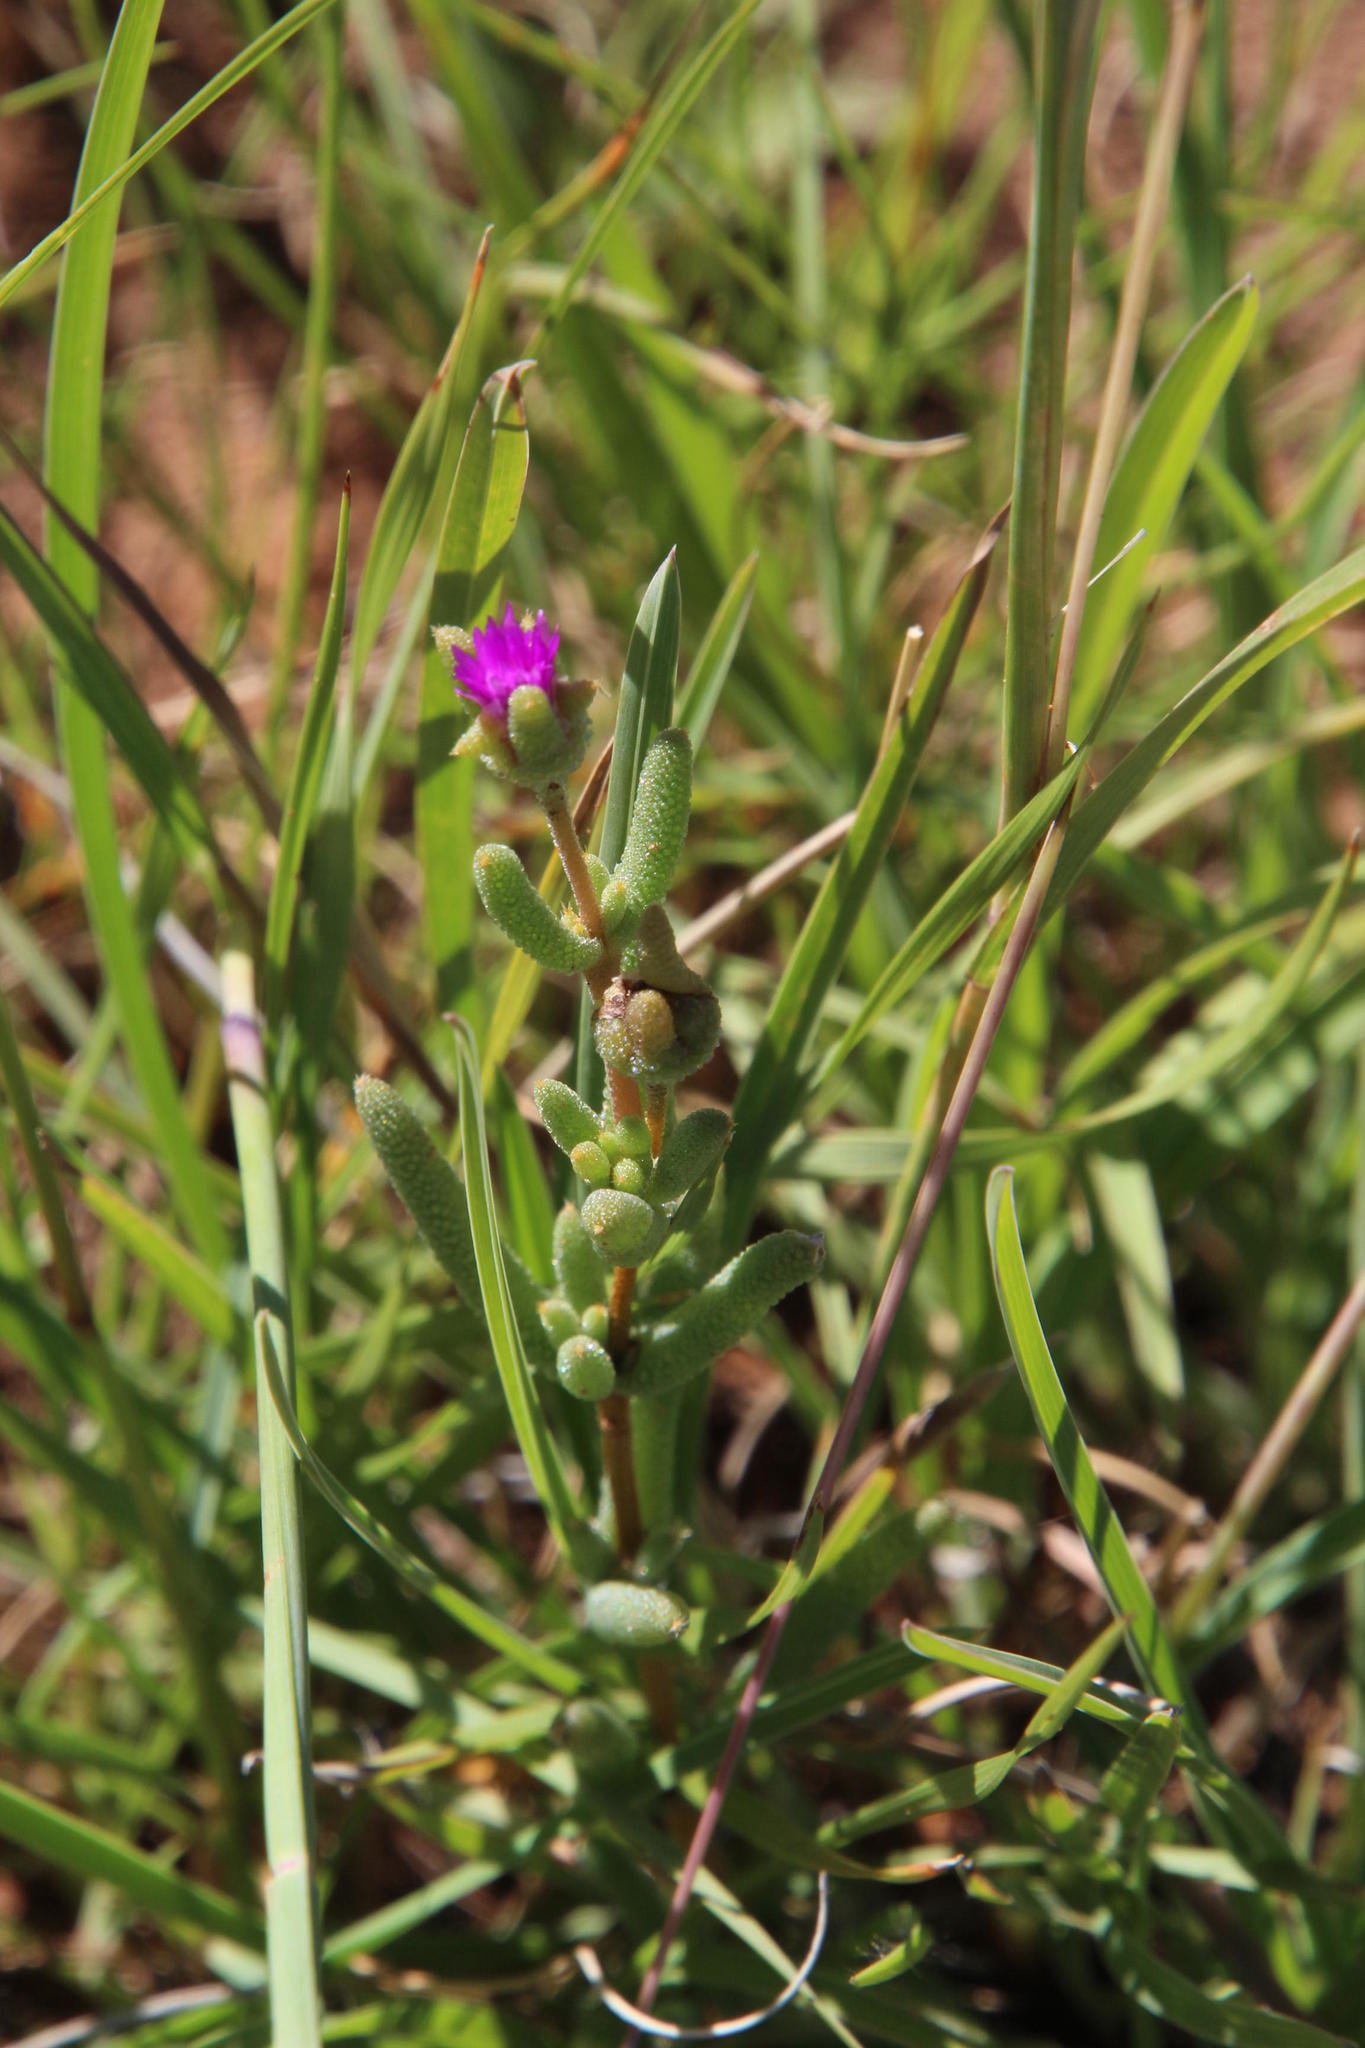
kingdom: Plantae
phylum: Tracheophyta
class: Magnoliopsida
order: Caryophyllales
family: Aizoaceae
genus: Trichodiadema
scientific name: Trichodiadema pomeridianum
